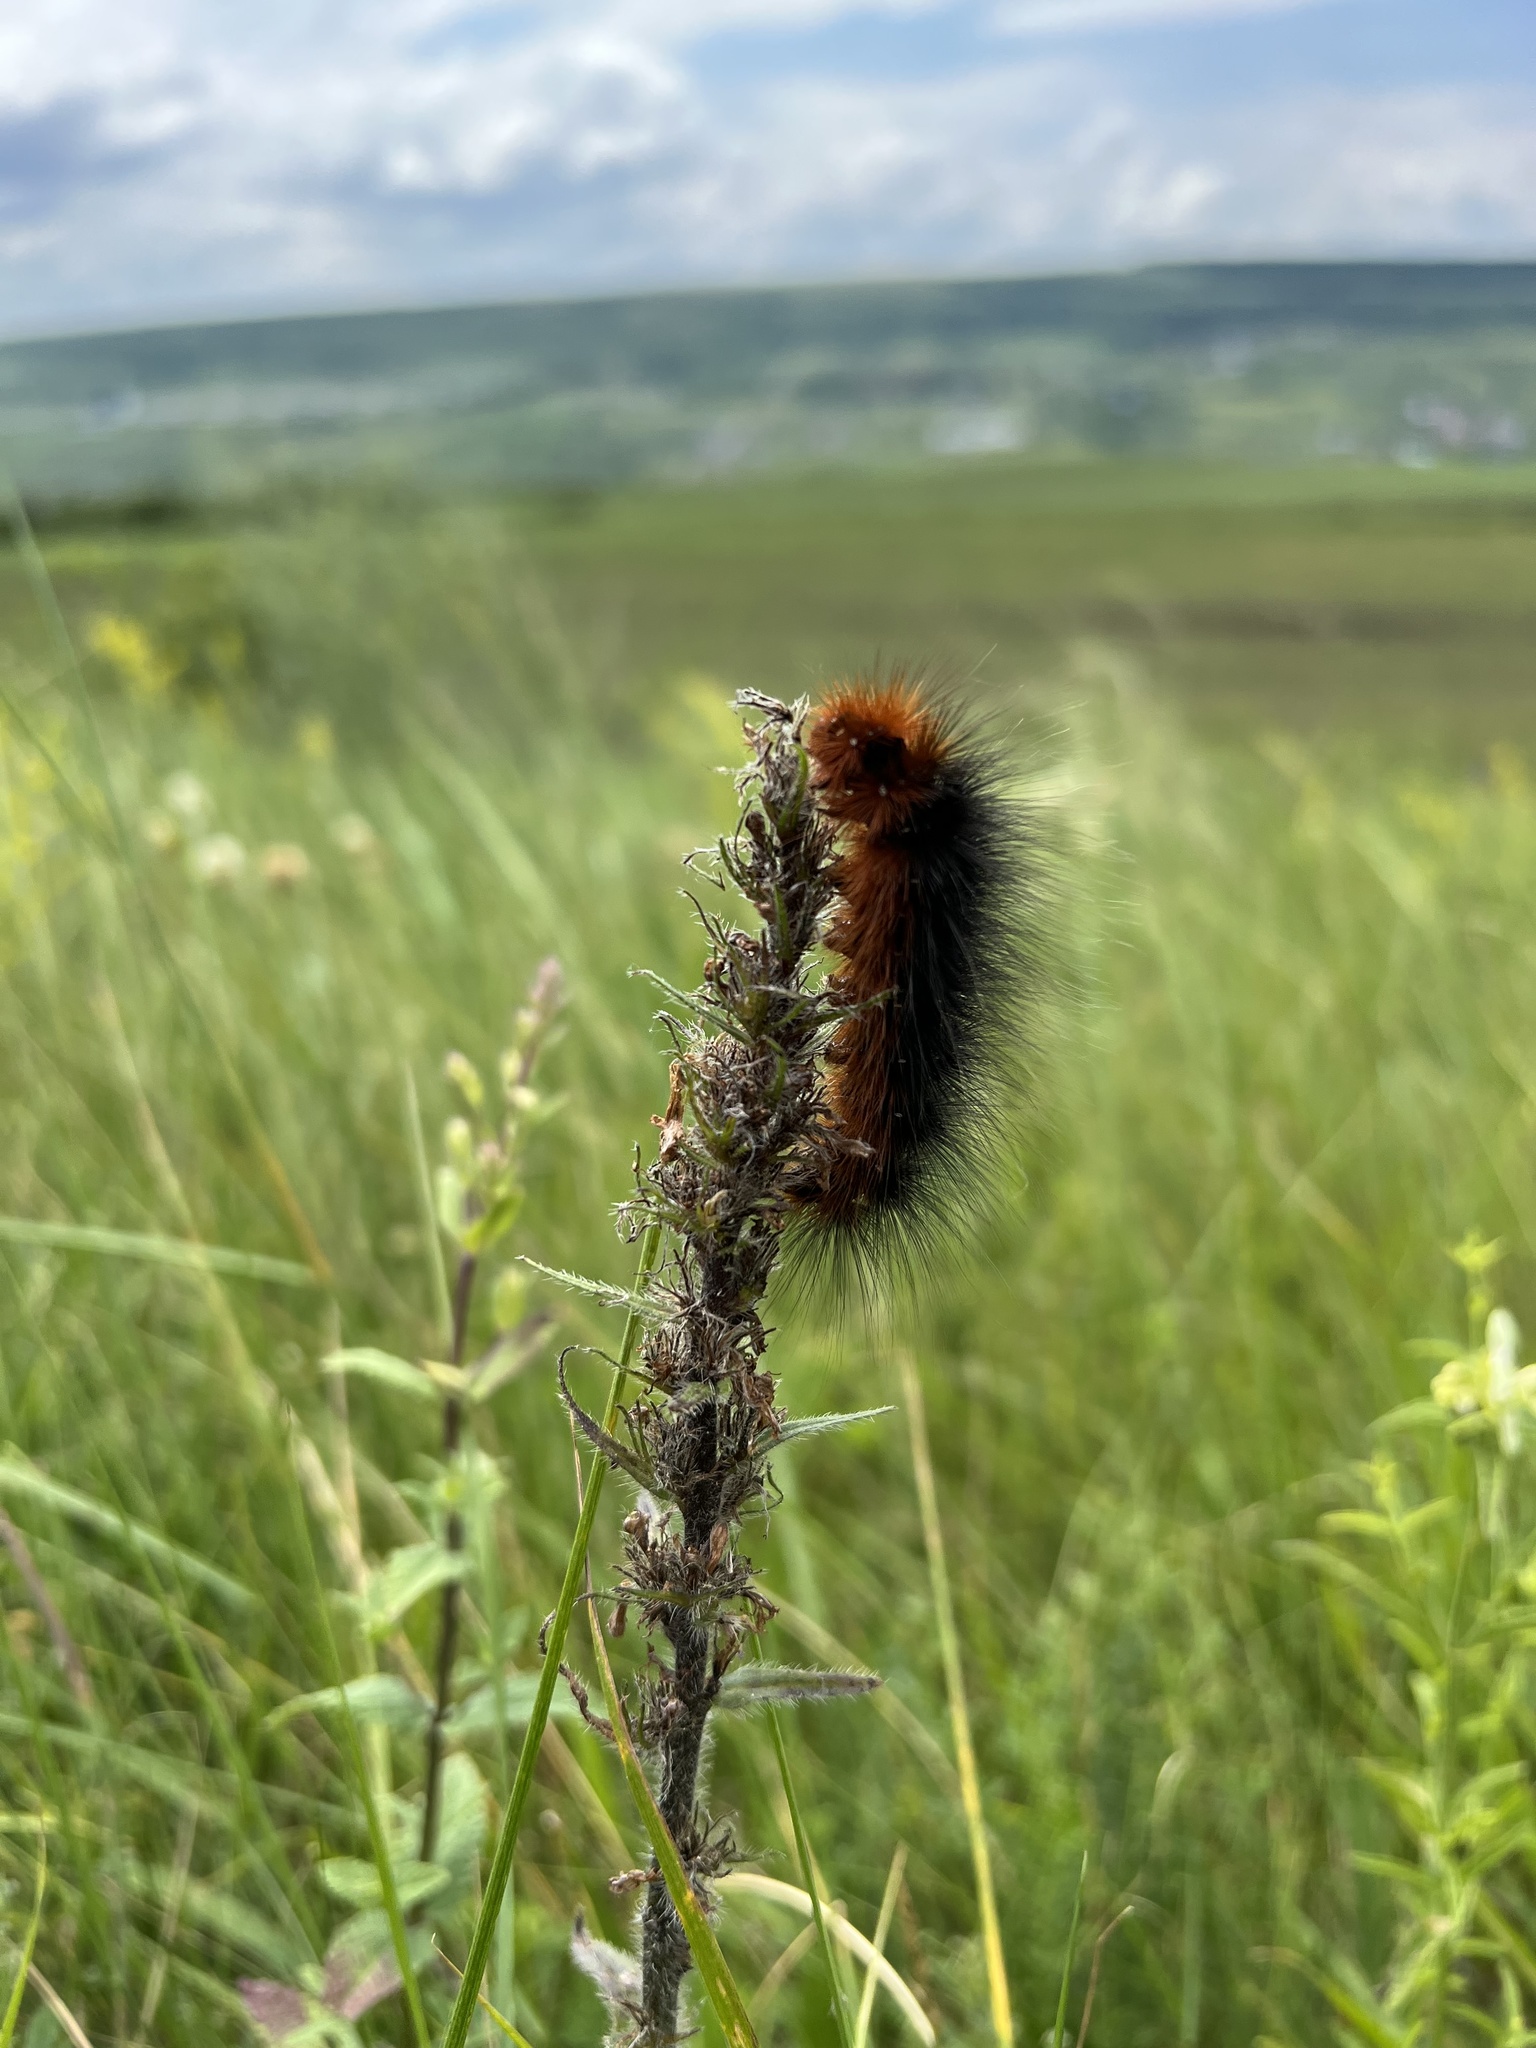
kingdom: Animalia
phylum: Arthropoda
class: Insecta
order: Lepidoptera
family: Erebidae
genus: Arctia
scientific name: Arctia caja
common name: Garden tiger
